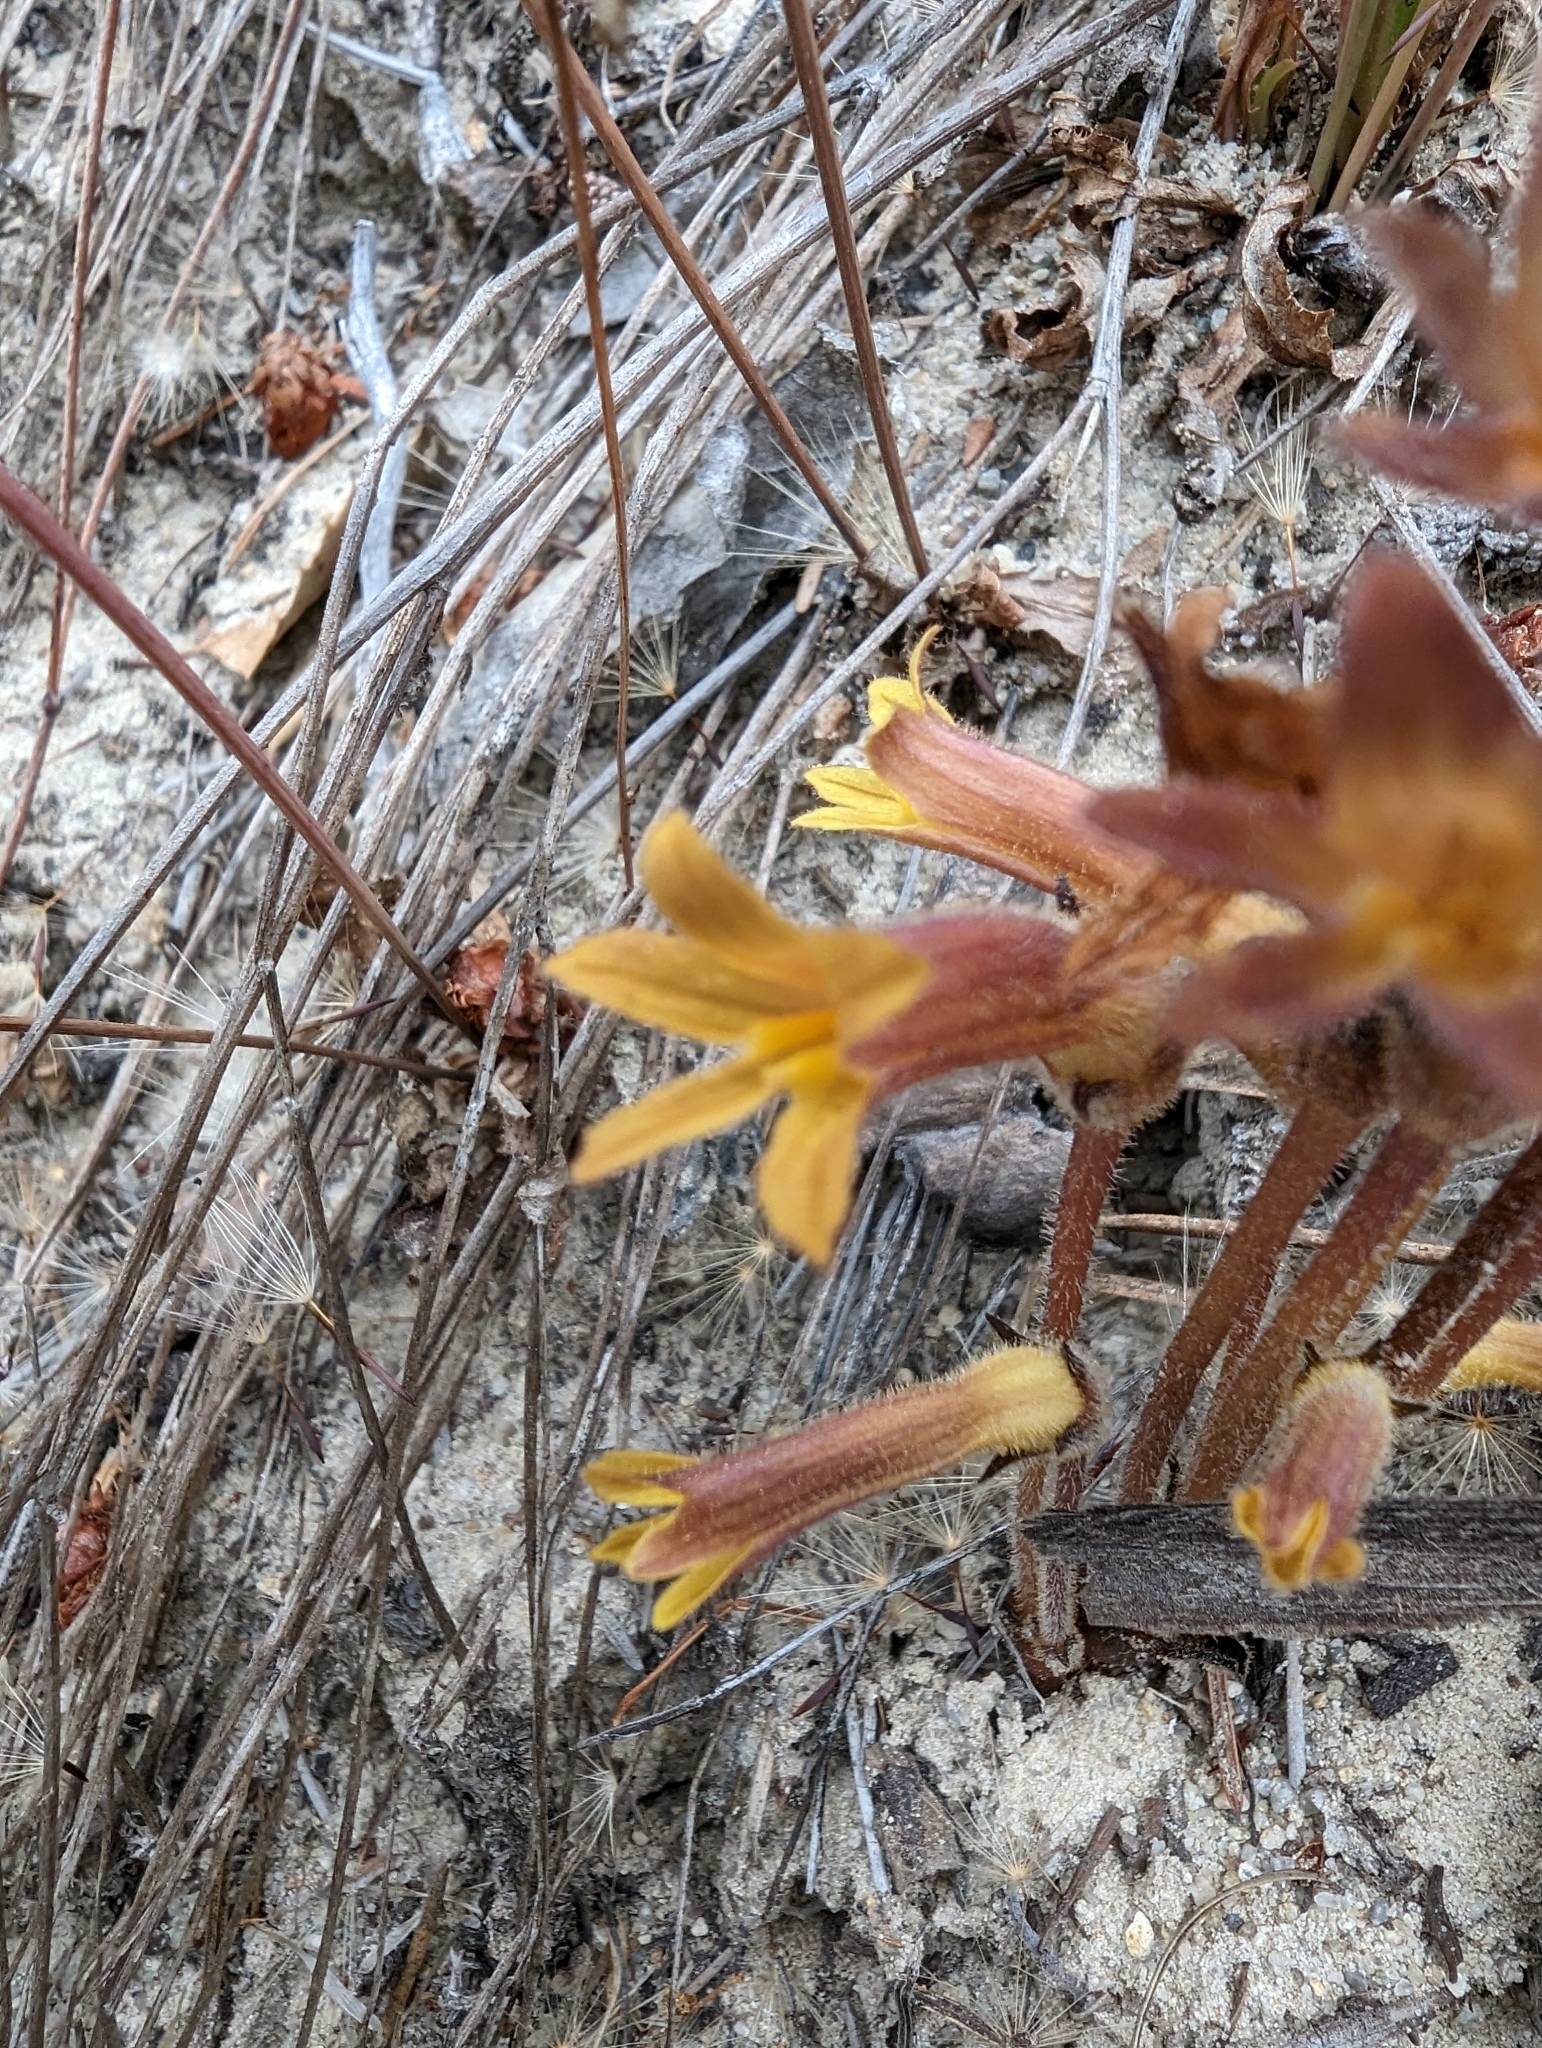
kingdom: Plantae
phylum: Tracheophyta
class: Magnoliopsida
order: Lamiales
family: Orobanchaceae
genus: Aphyllon
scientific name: Aphyllon franciscanum
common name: San francisco broomrape
